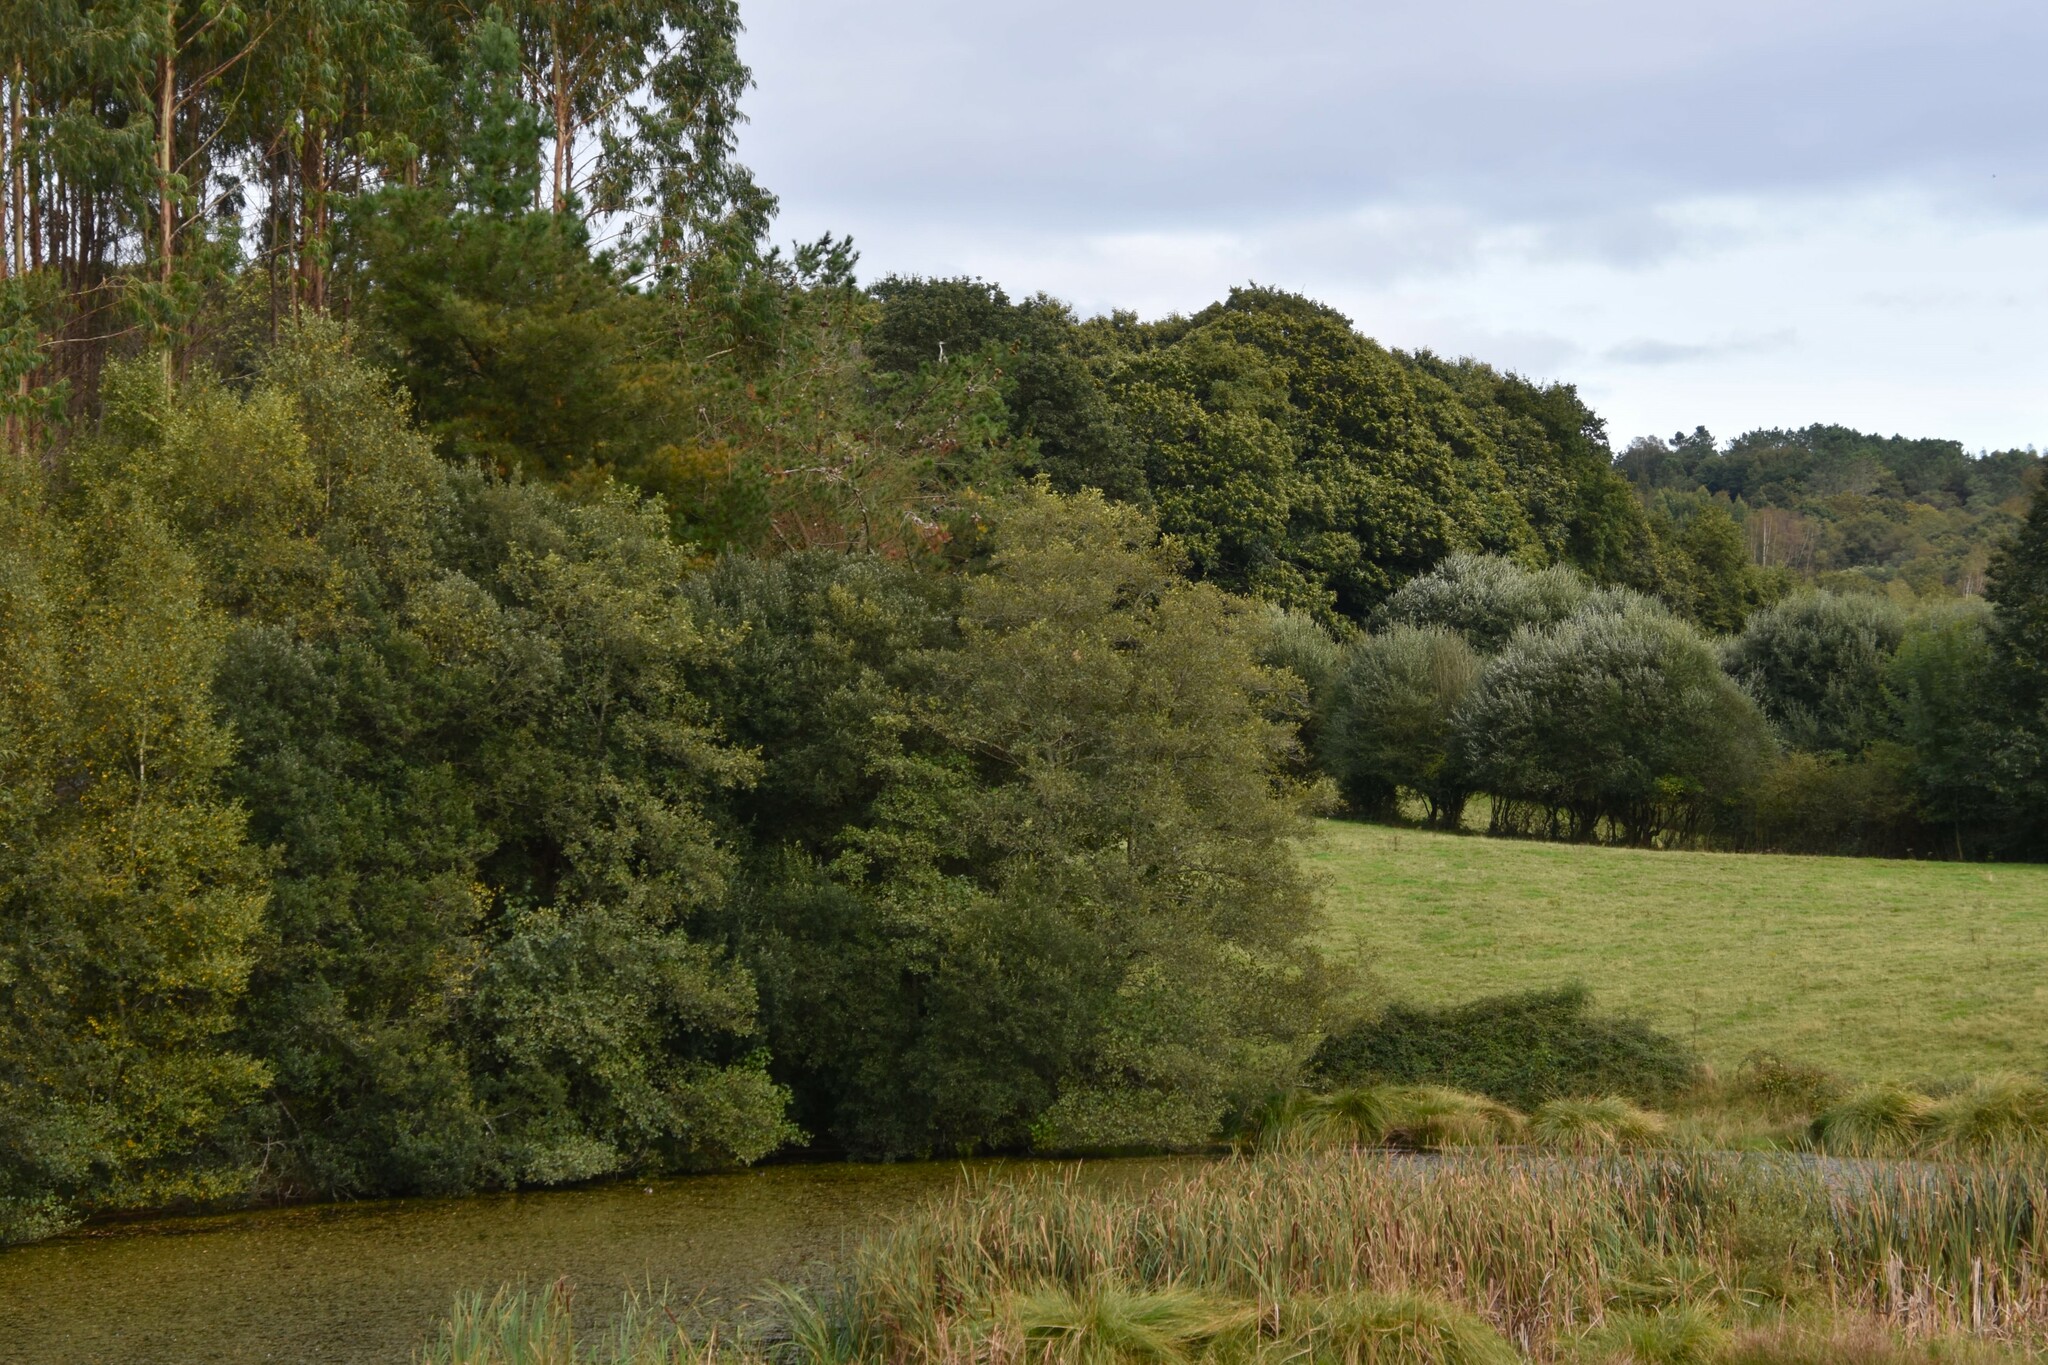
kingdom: Animalia
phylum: Chordata
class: Aves
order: Pelecaniformes
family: Ardeidae
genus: Ardea
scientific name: Ardea cinerea
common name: Grey heron
